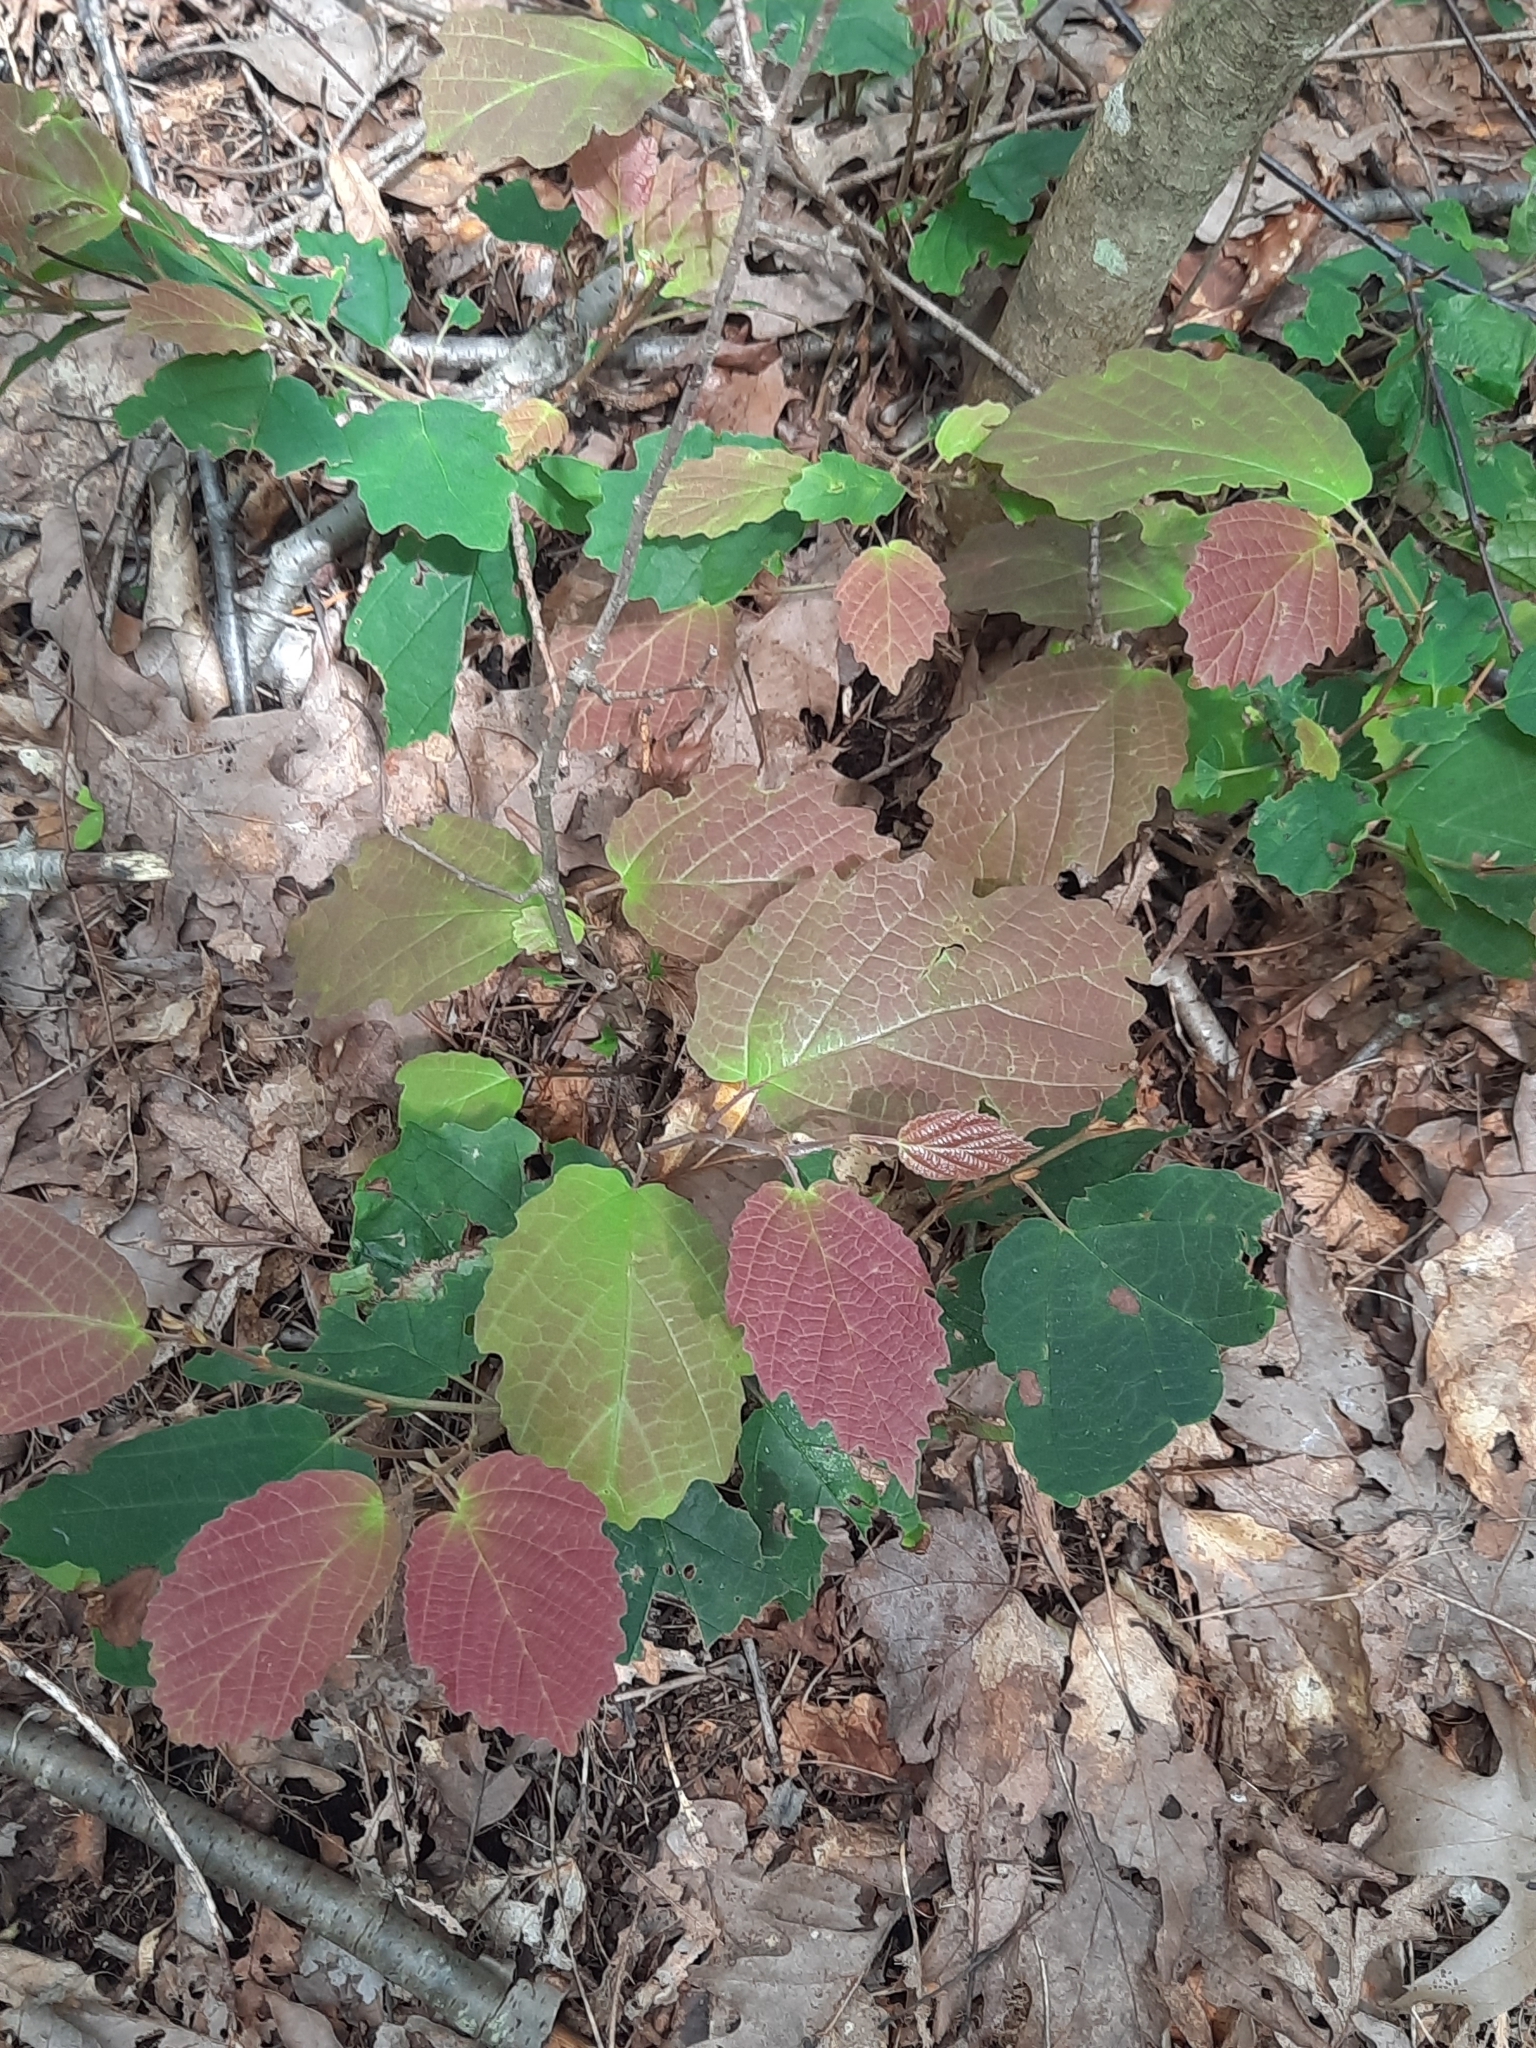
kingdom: Plantae
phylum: Tracheophyta
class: Magnoliopsida
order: Saxifragales
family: Hamamelidaceae
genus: Hamamelis
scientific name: Hamamelis virginiana
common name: Witch-hazel
